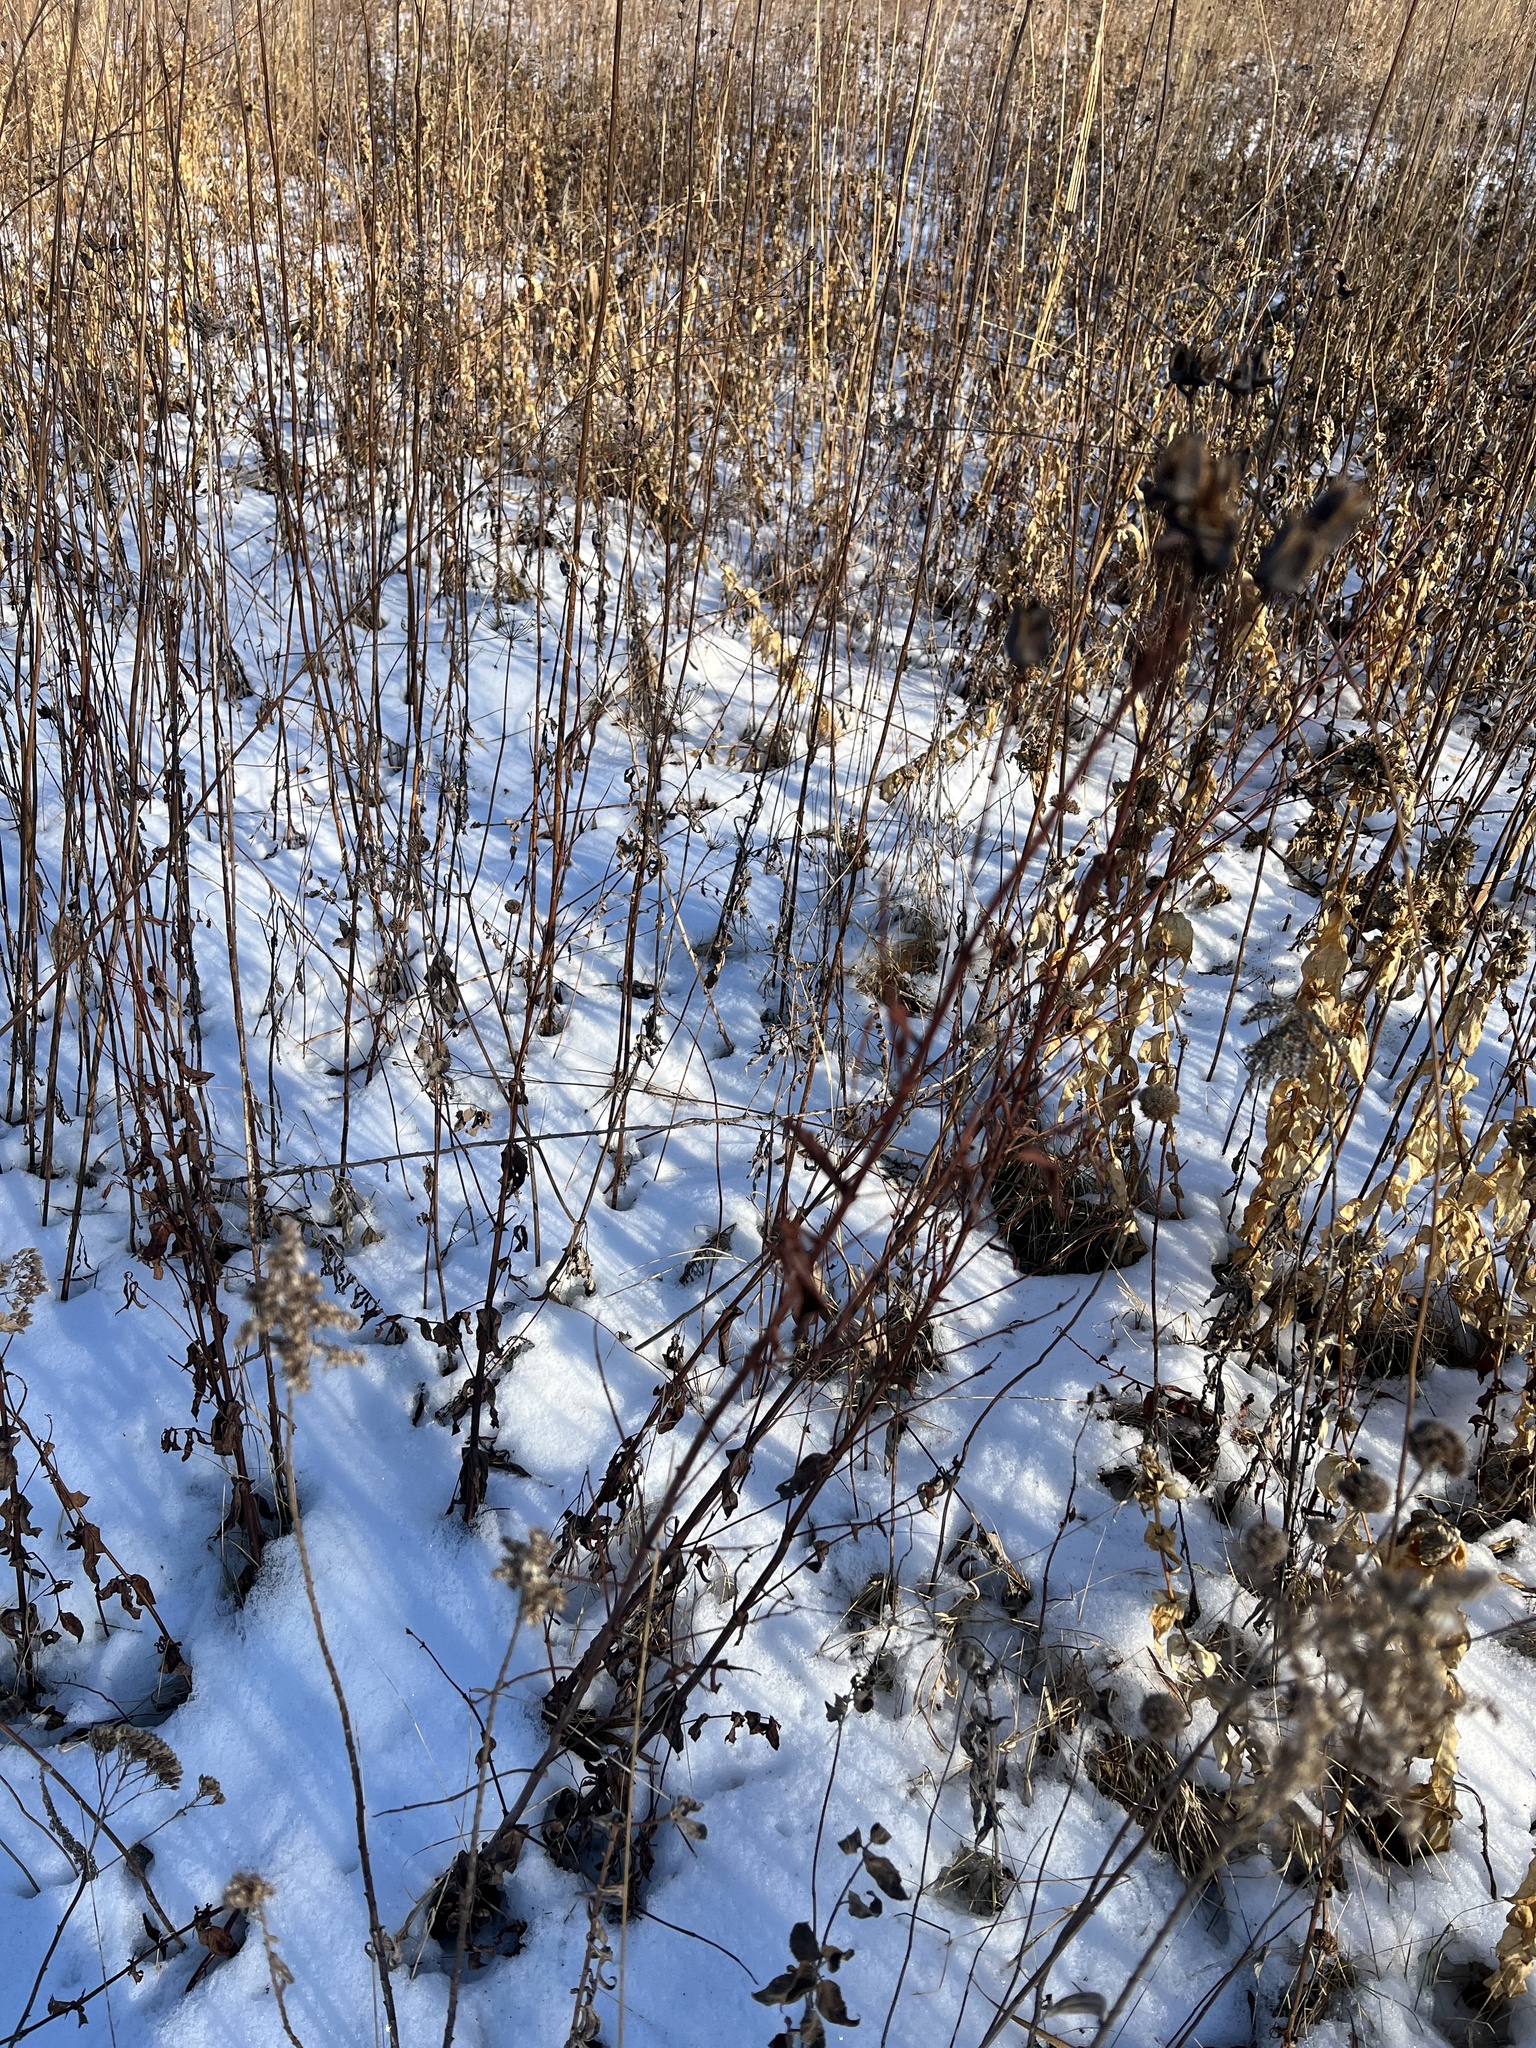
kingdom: Plantae
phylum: Tracheophyta
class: Magnoliopsida
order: Malpighiales
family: Hypericaceae
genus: Hypericum
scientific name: Hypericum ascyron
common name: Giant st. john's-wort
